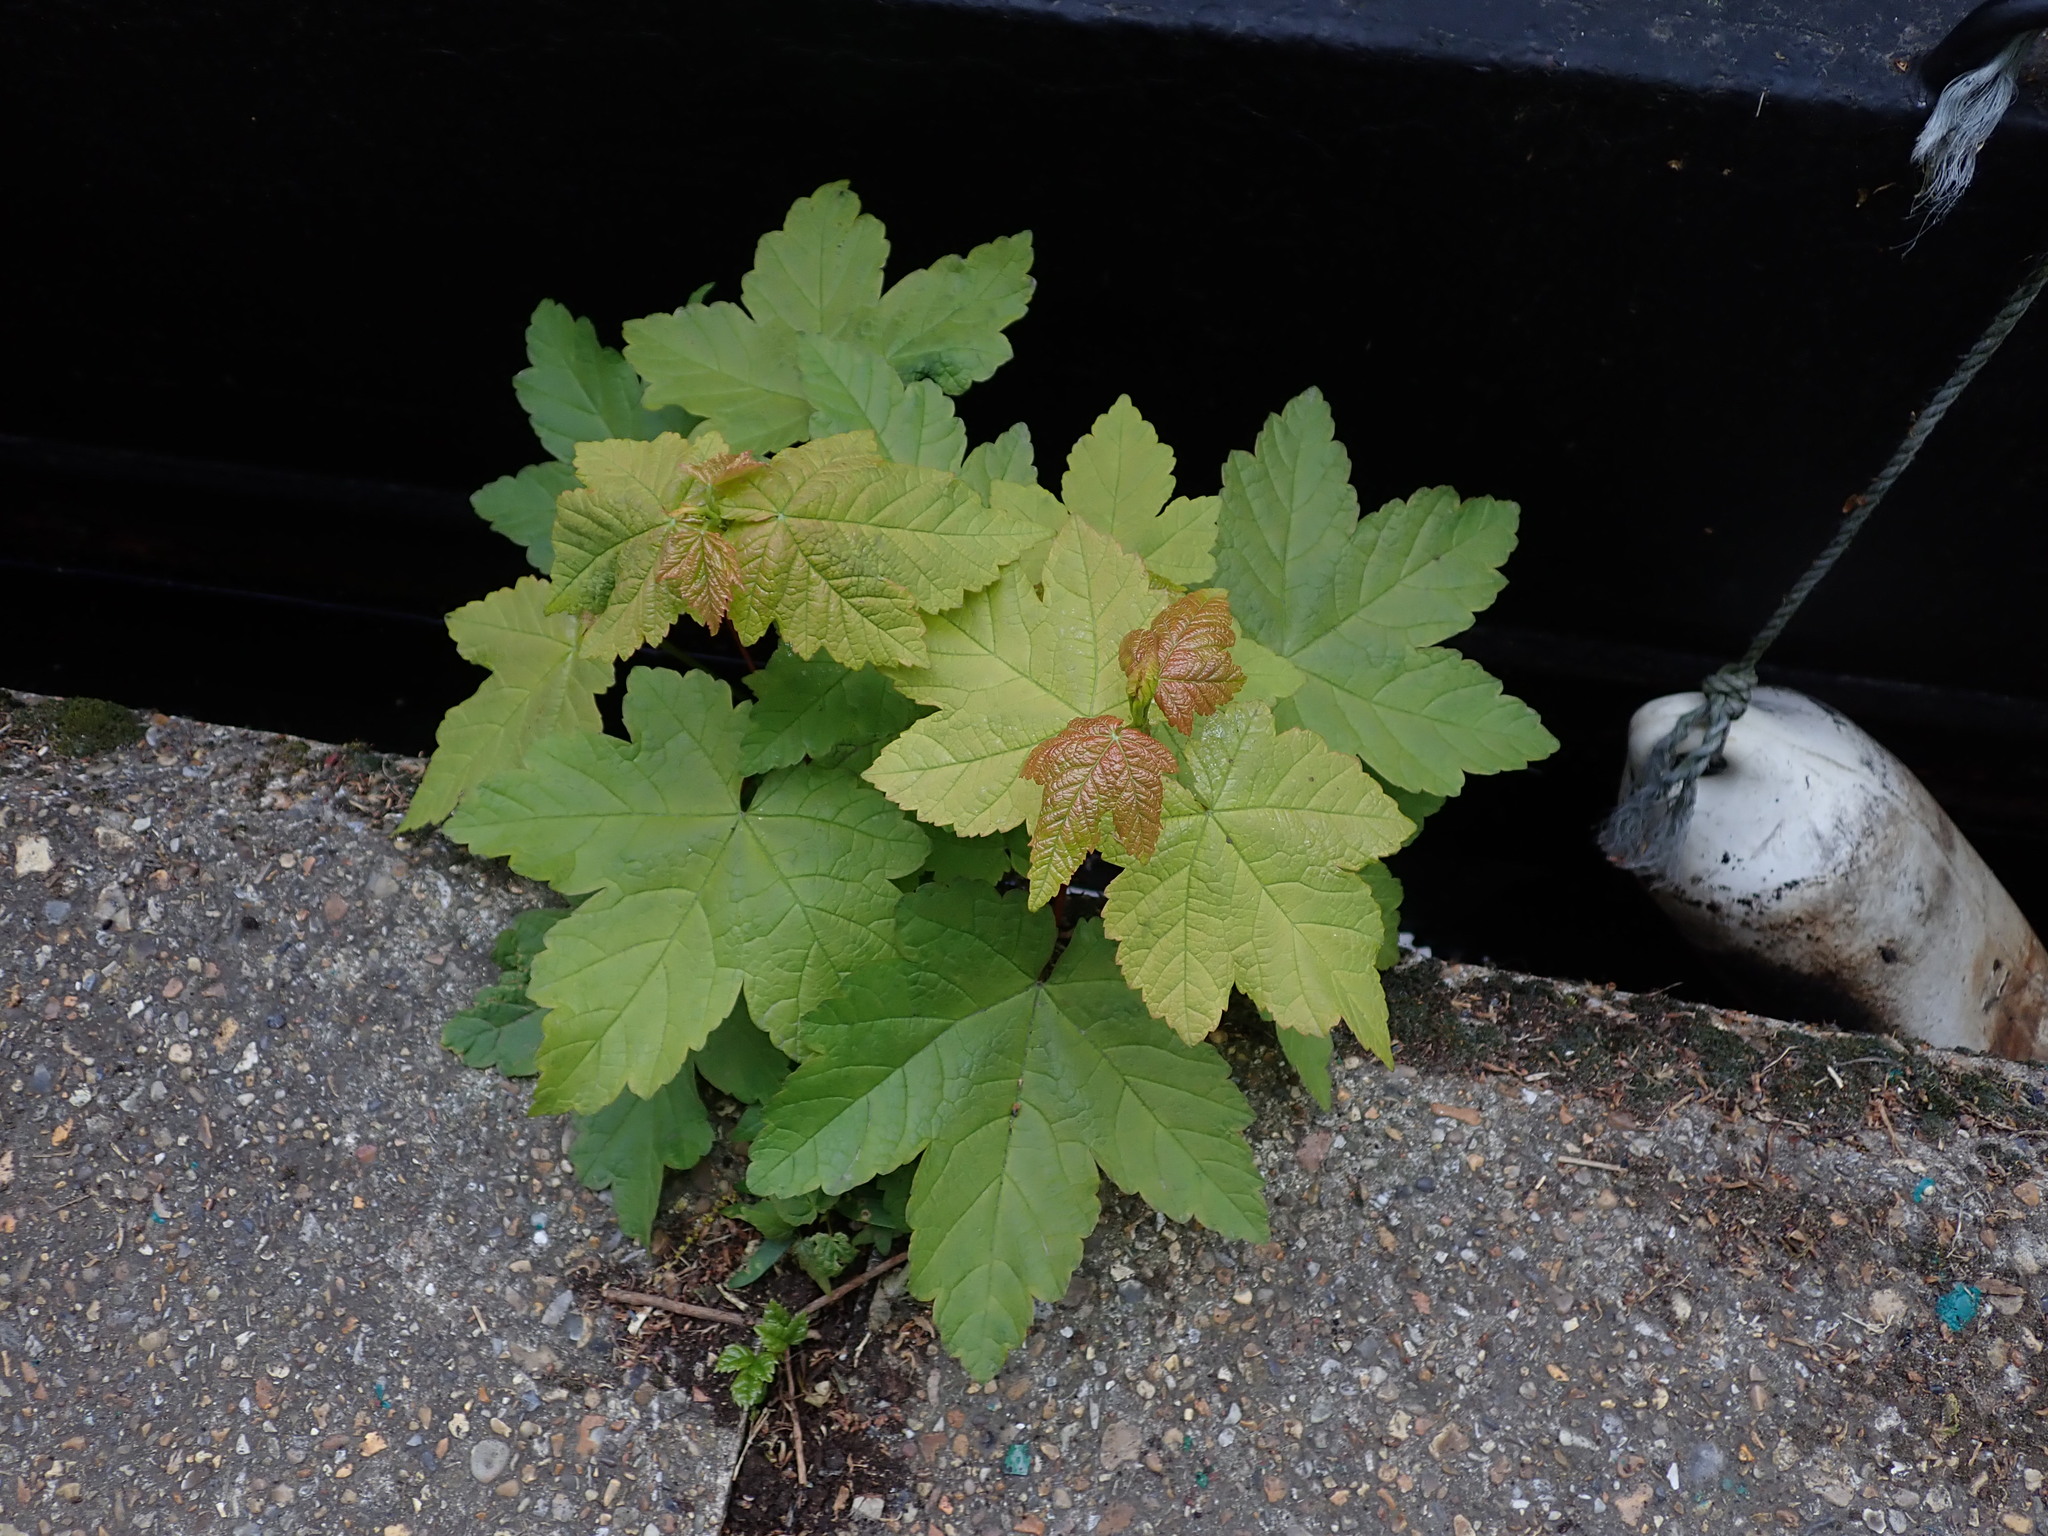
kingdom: Plantae
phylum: Tracheophyta
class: Magnoliopsida
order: Sapindales
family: Sapindaceae
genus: Acer
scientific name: Acer pseudoplatanus
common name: Sycamore
